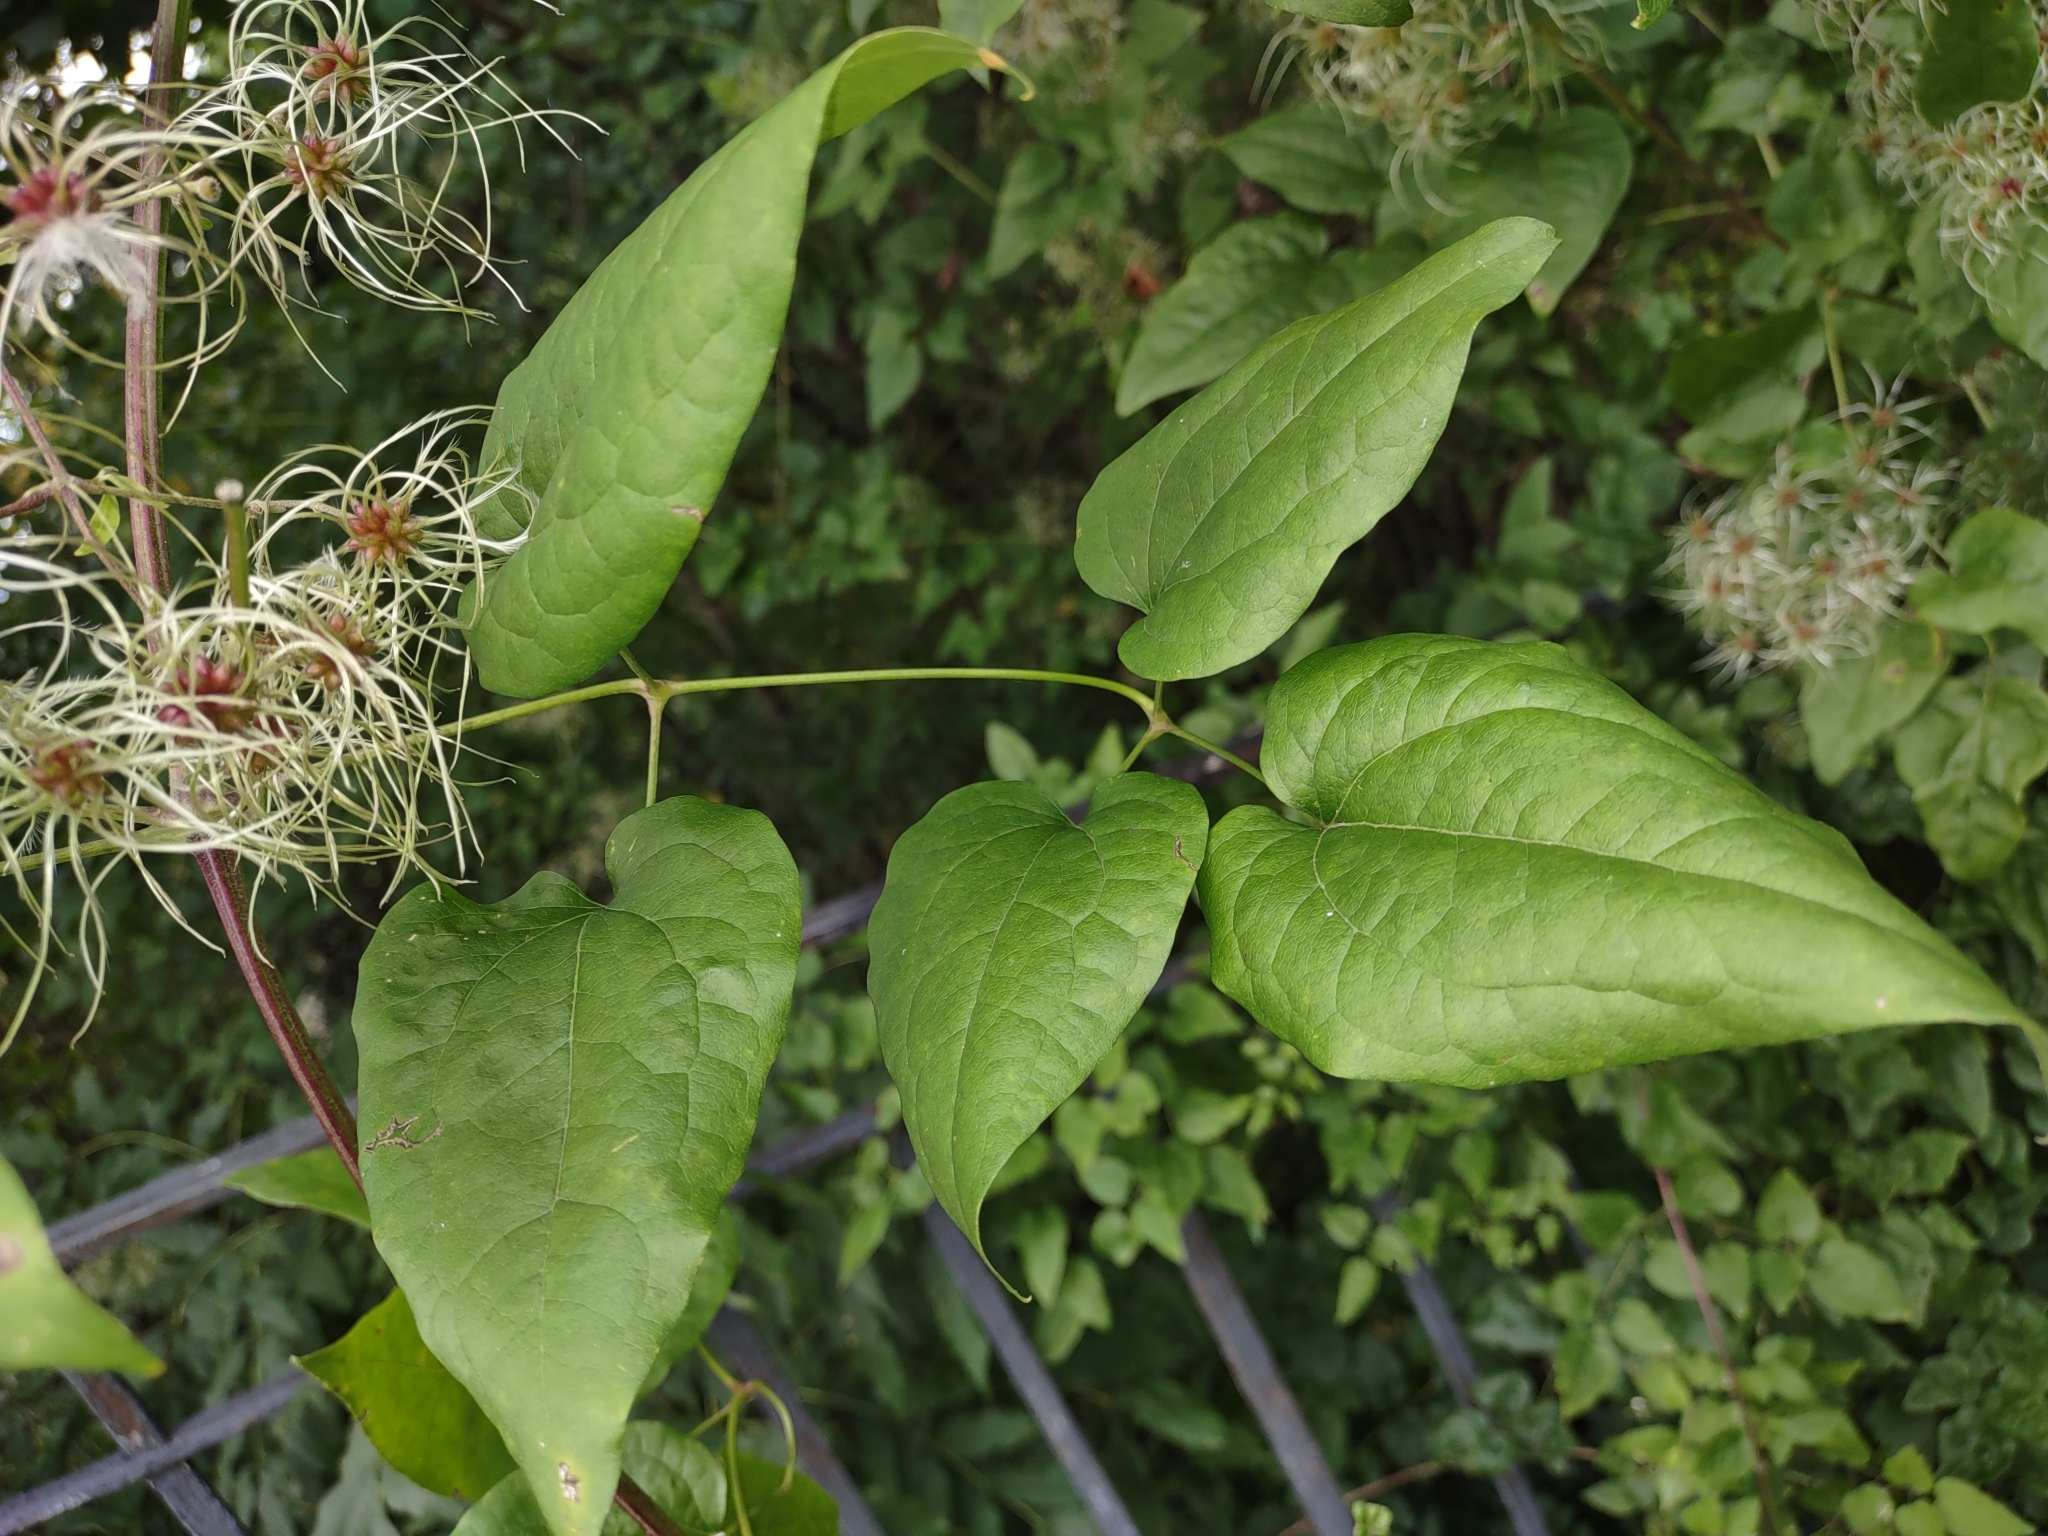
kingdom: Plantae
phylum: Tracheophyta
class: Magnoliopsida
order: Ranunculales
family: Ranunculaceae
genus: Clematis
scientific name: Clematis vitalba
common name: Evergreen clematis
